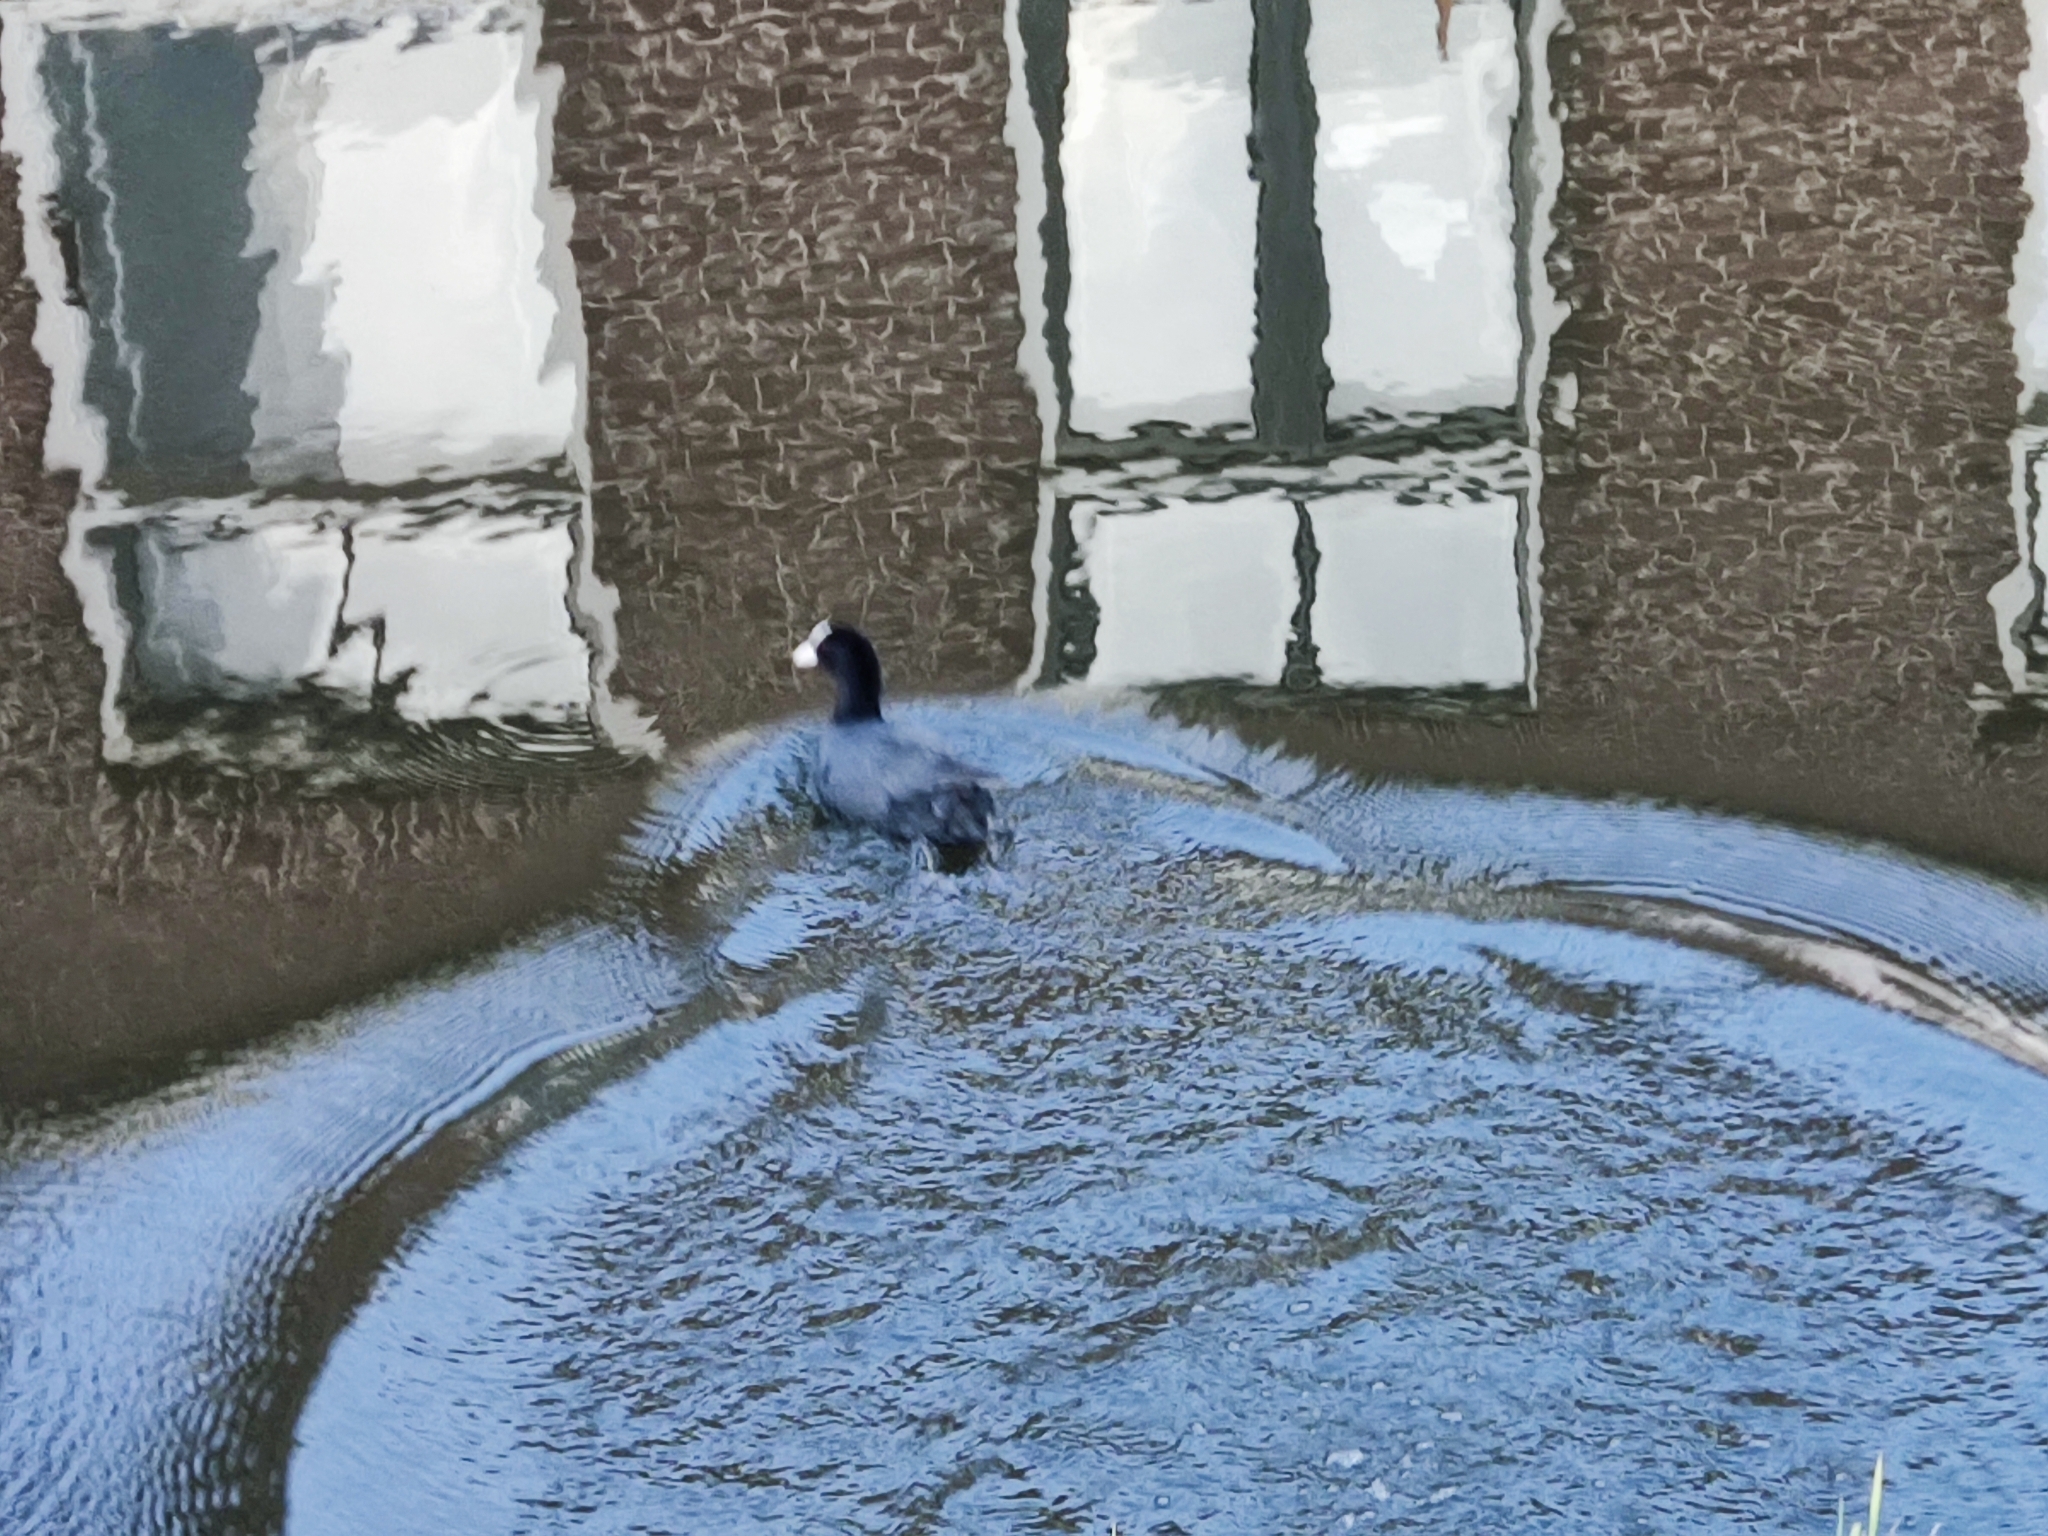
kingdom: Animalia
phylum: Chordata
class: Aves
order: Gruiformes
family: Rallidae
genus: Fulica
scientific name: Fulica atra
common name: Eurasian coot
